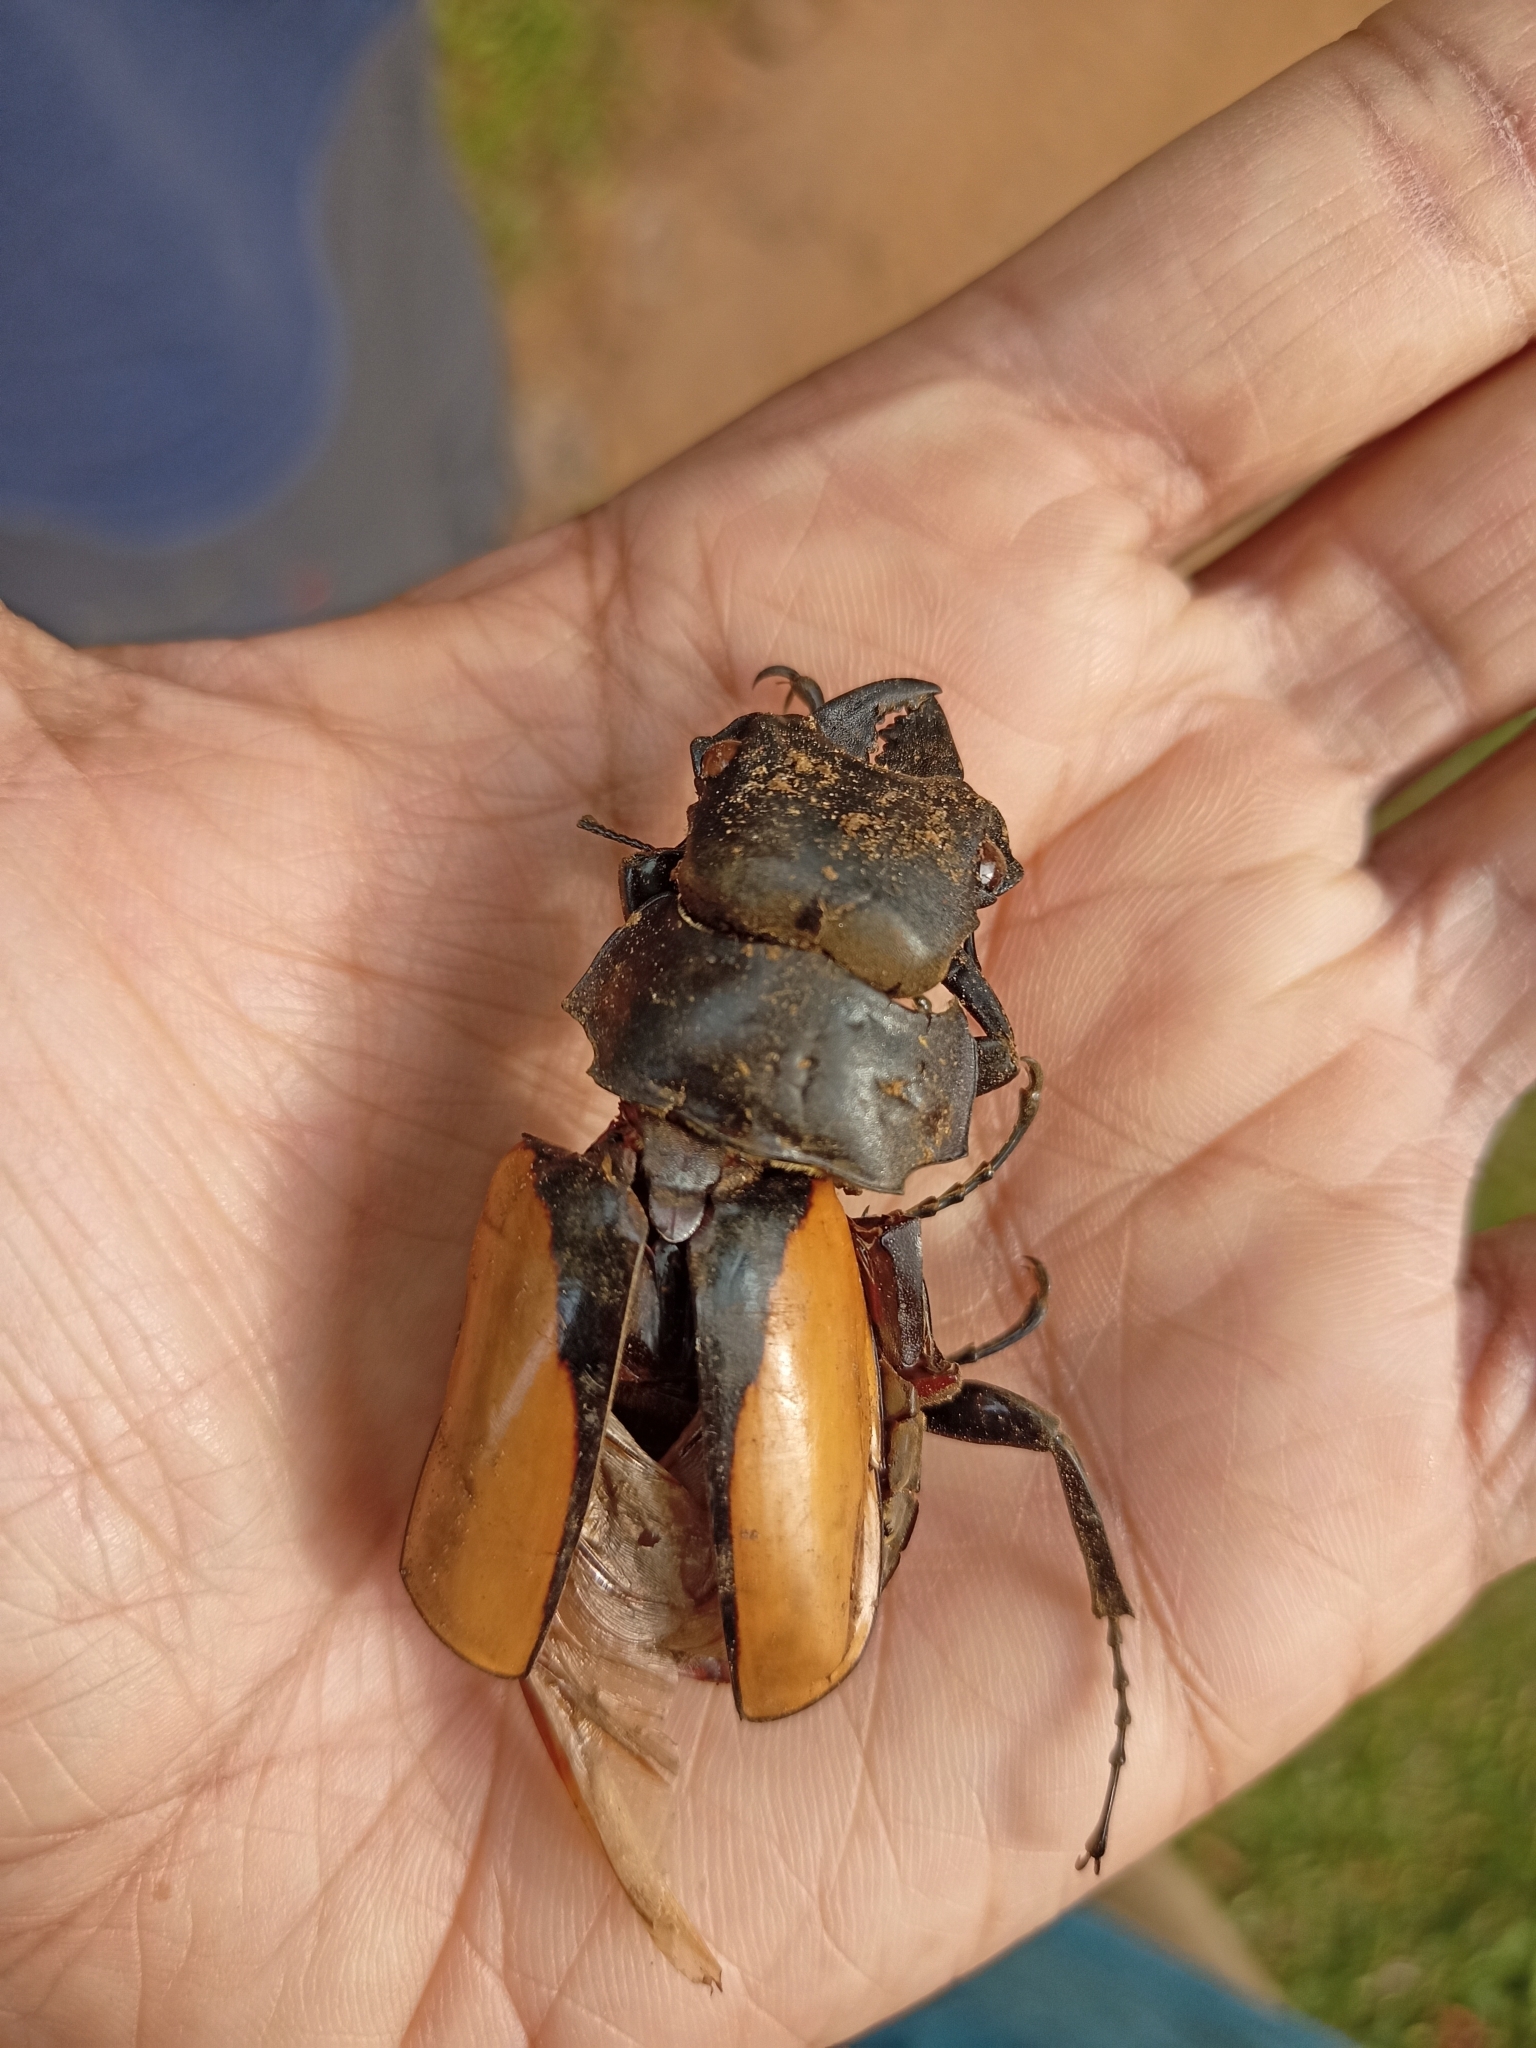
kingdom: Animalia
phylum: Arthropoda
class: Insecta
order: Coleoptera
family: Lucanidae
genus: Odontolabis
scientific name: Odontolabis burmeisteri
